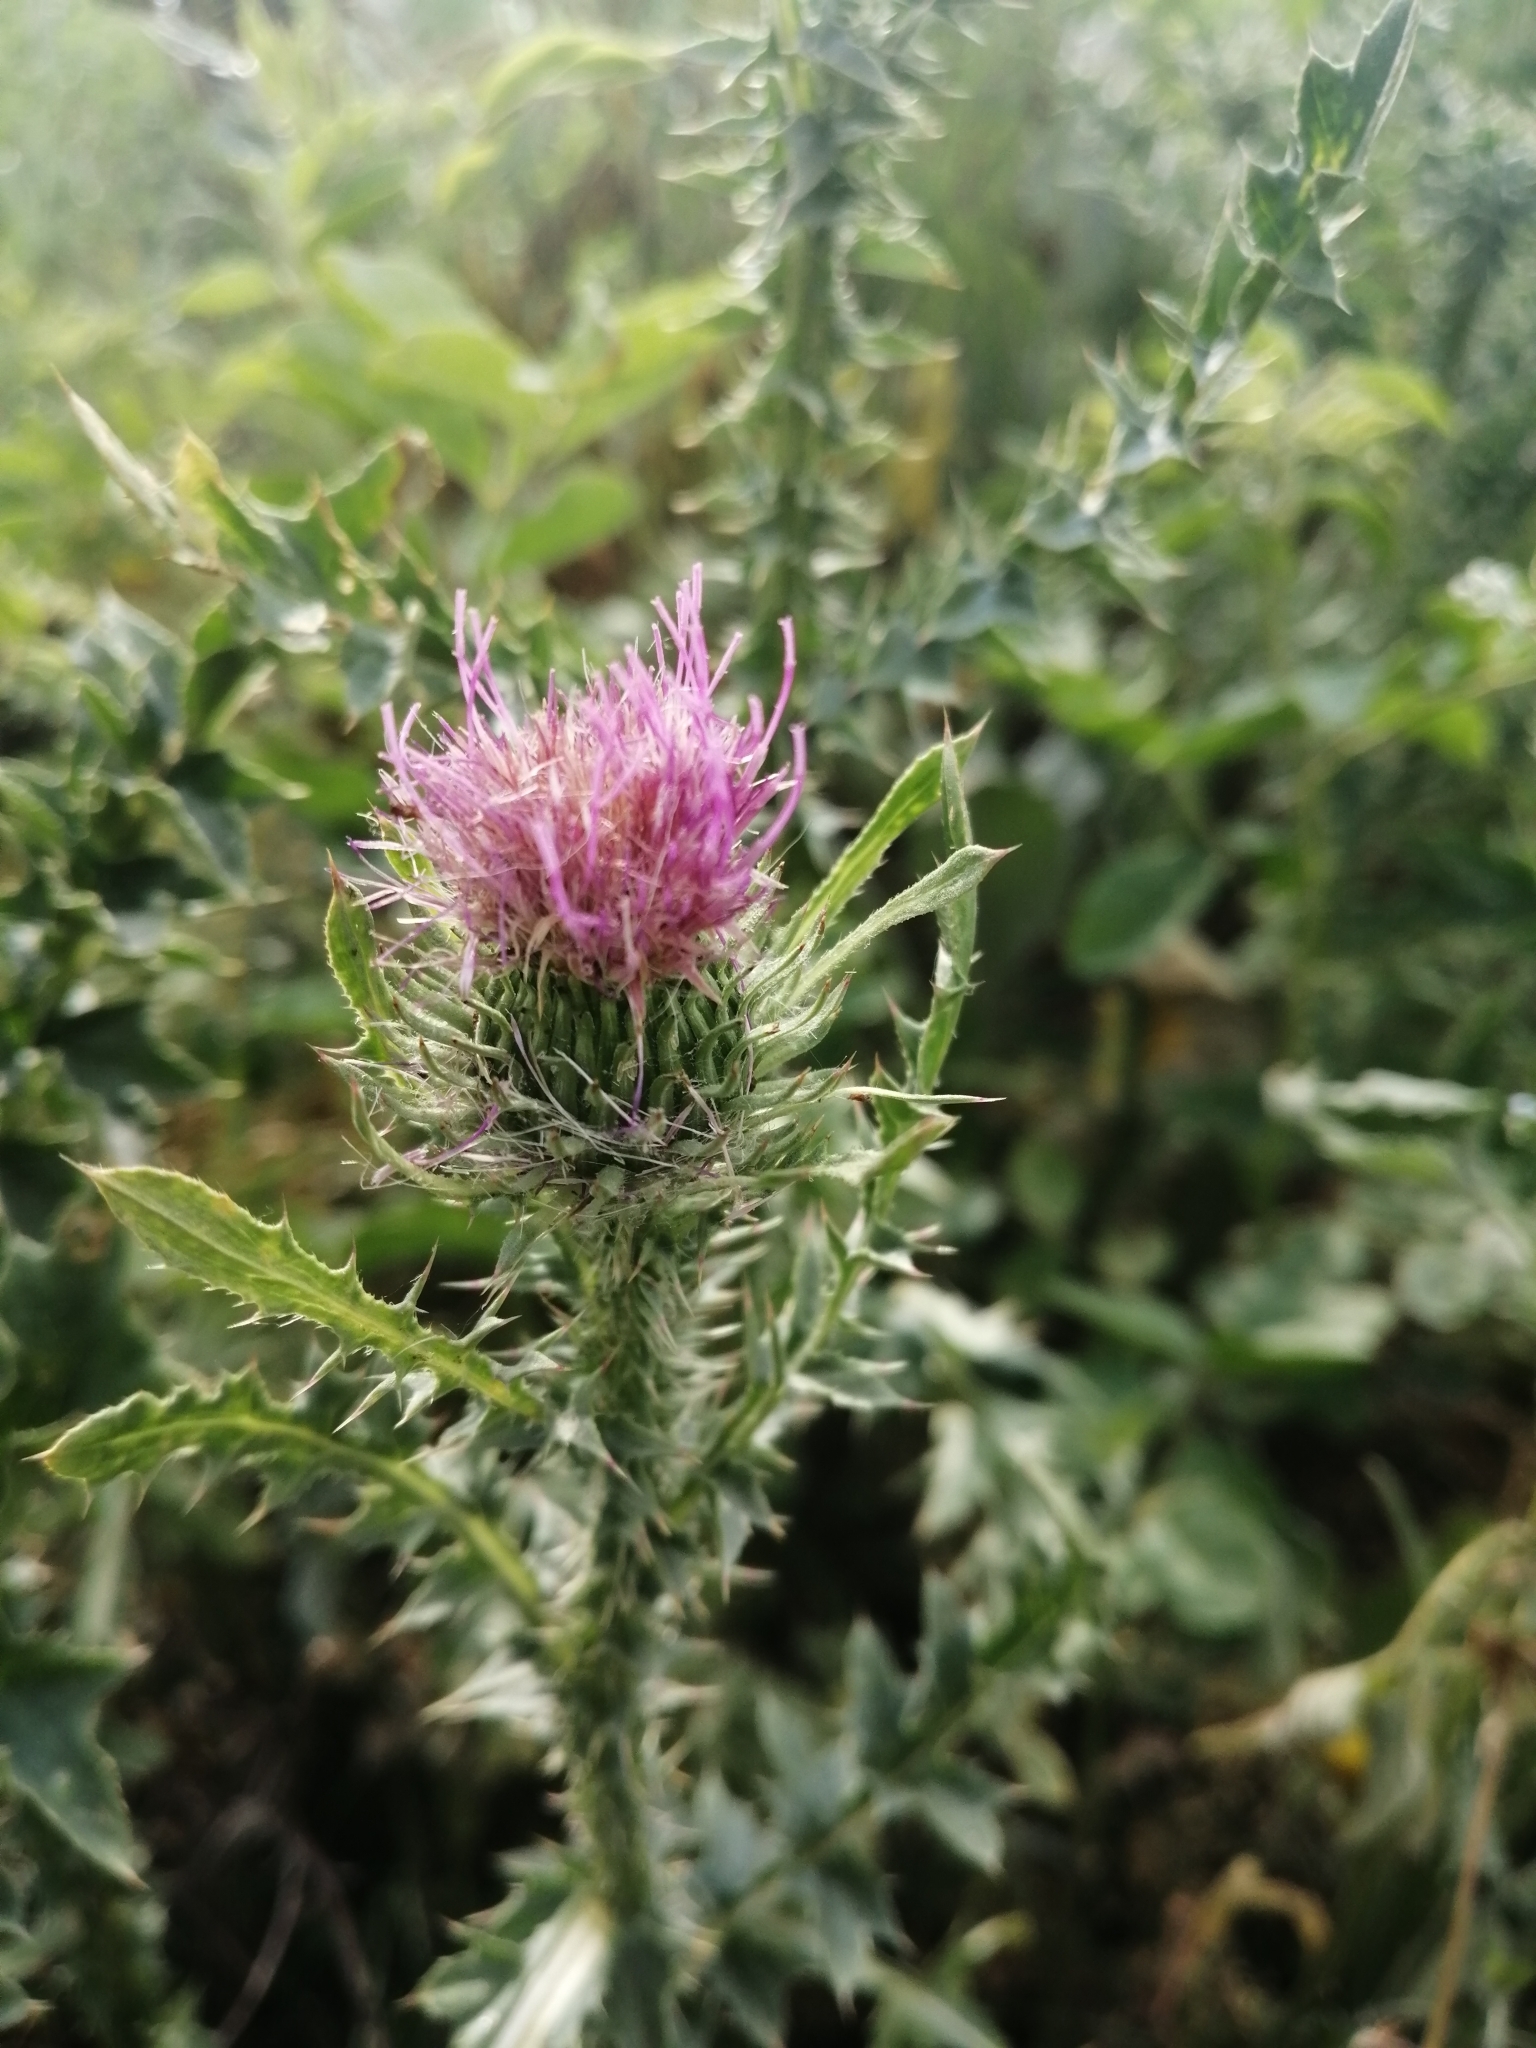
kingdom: Plantae
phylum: Tracheophyta
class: Magnoliopsida
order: Asterales
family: Asteraceae
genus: Carduus
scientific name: Carduus acanthoides
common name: Plumeless thistle
